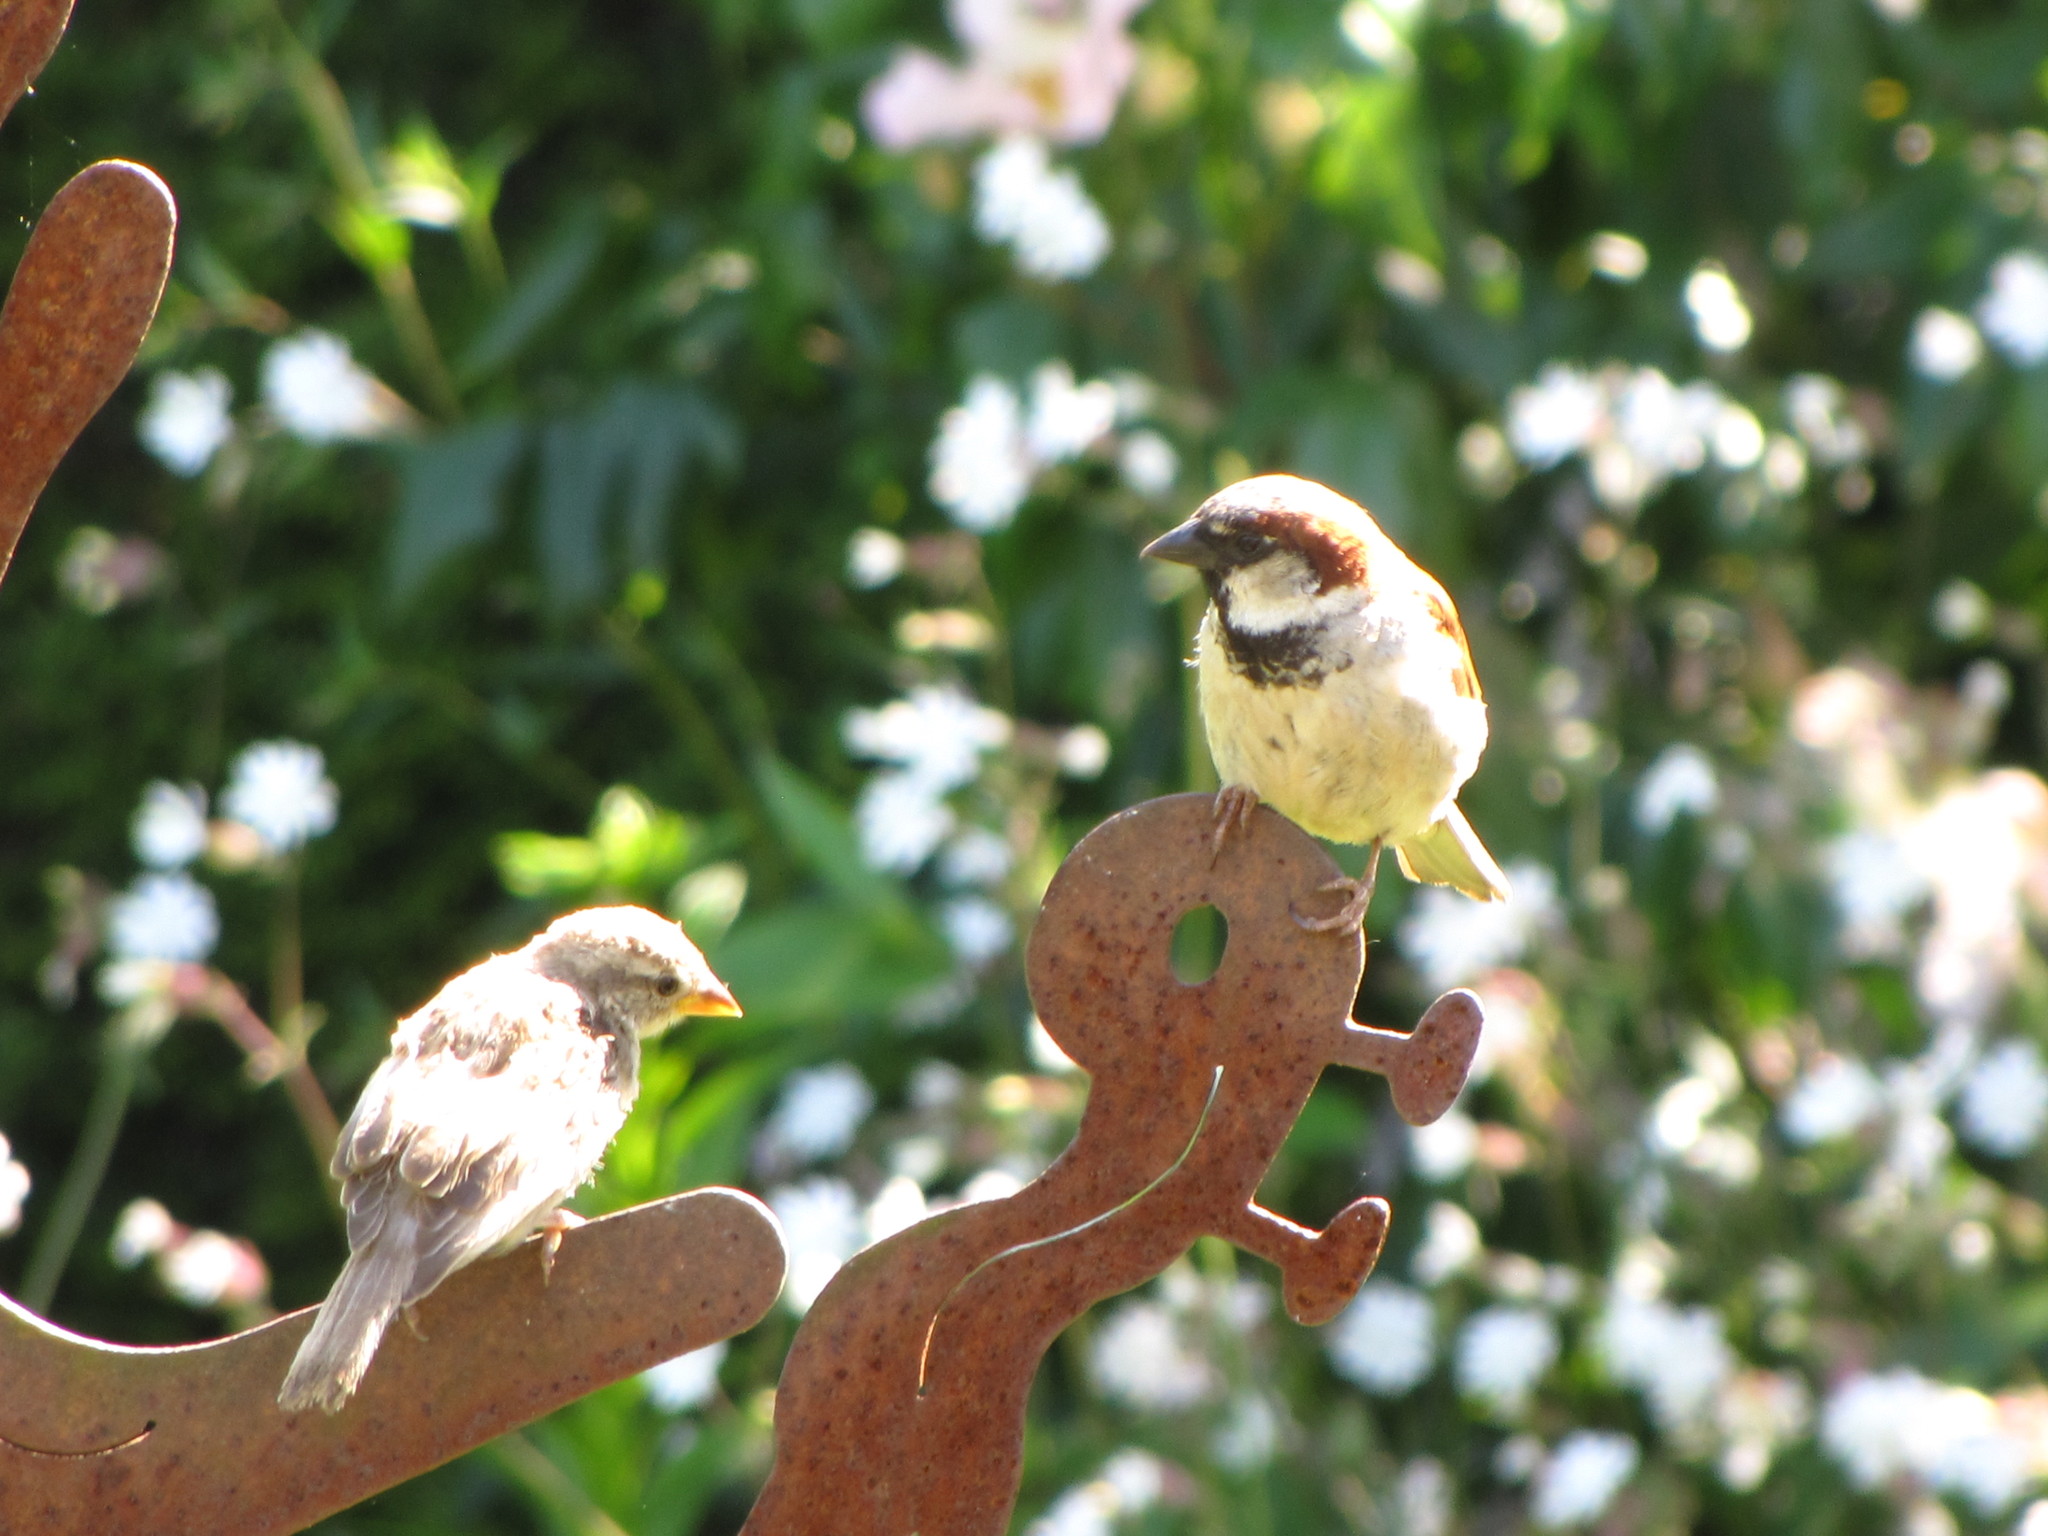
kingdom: Animalia
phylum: Chordata
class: Aves
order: Passeriformes
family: Passeridae
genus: Passer
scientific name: Passer domesticus
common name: House sparrow
